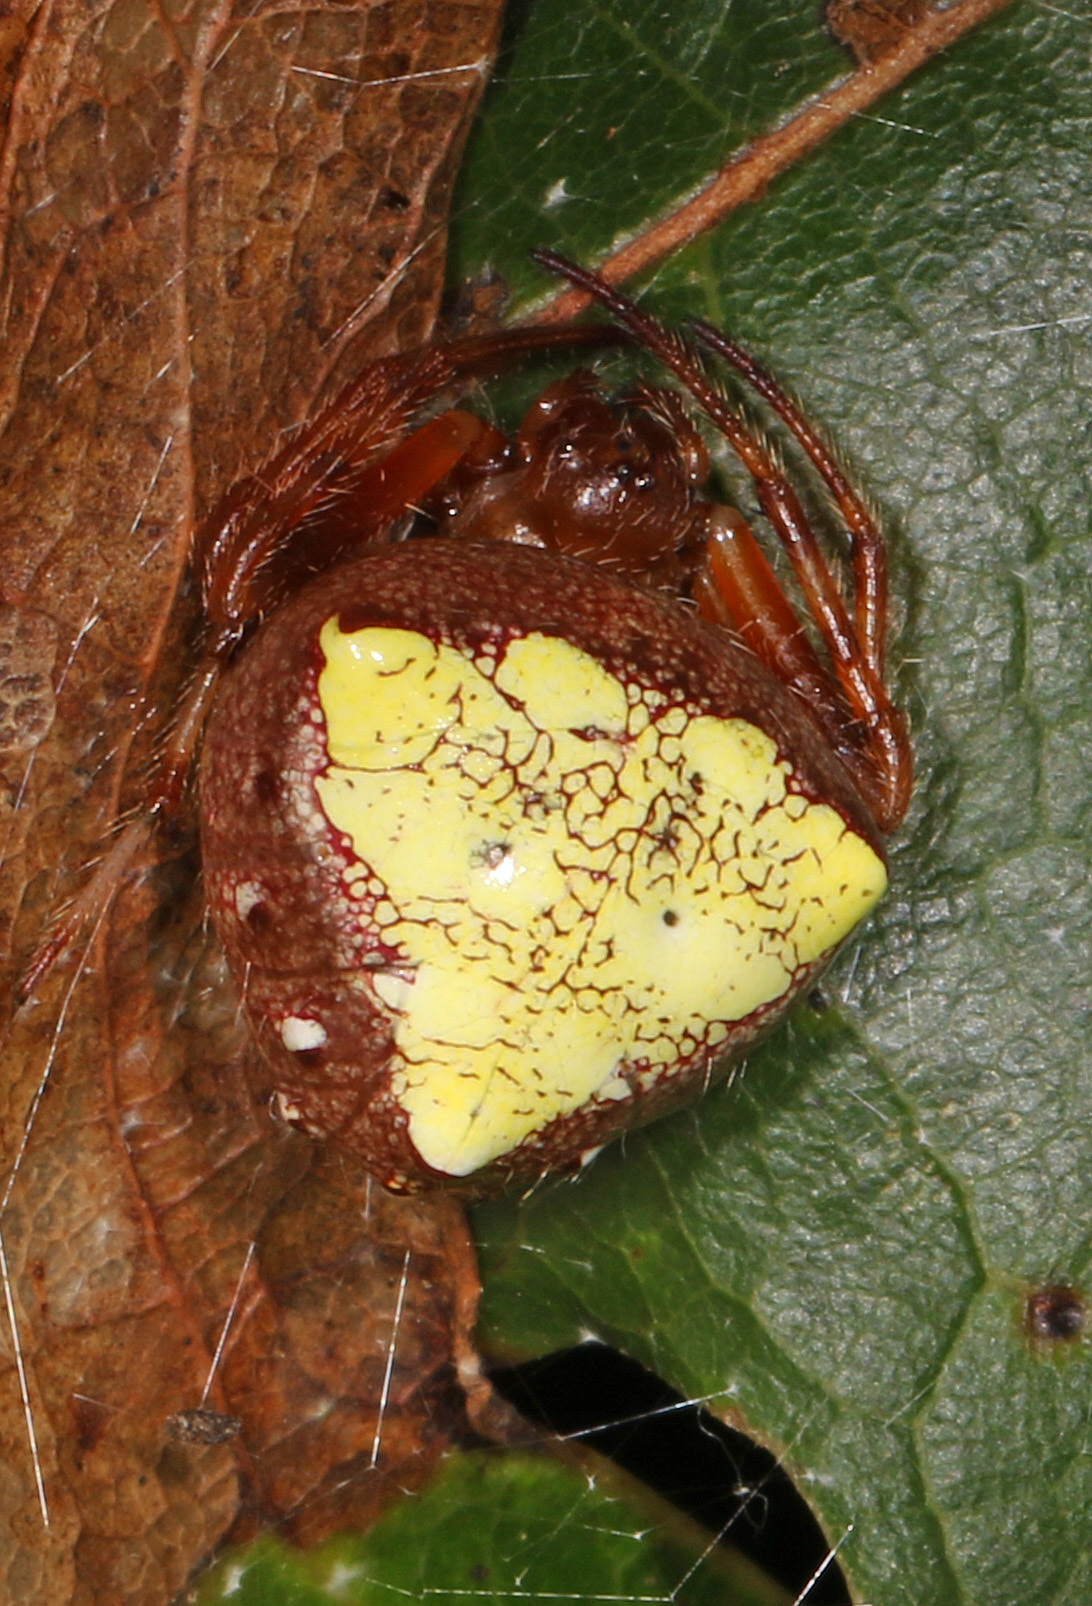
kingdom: Animalia
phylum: Arthropoda
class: Arachnida
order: Araneae
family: Araneidae
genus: Verrucosa
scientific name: Verrucosa arenata
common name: Orb weavers
